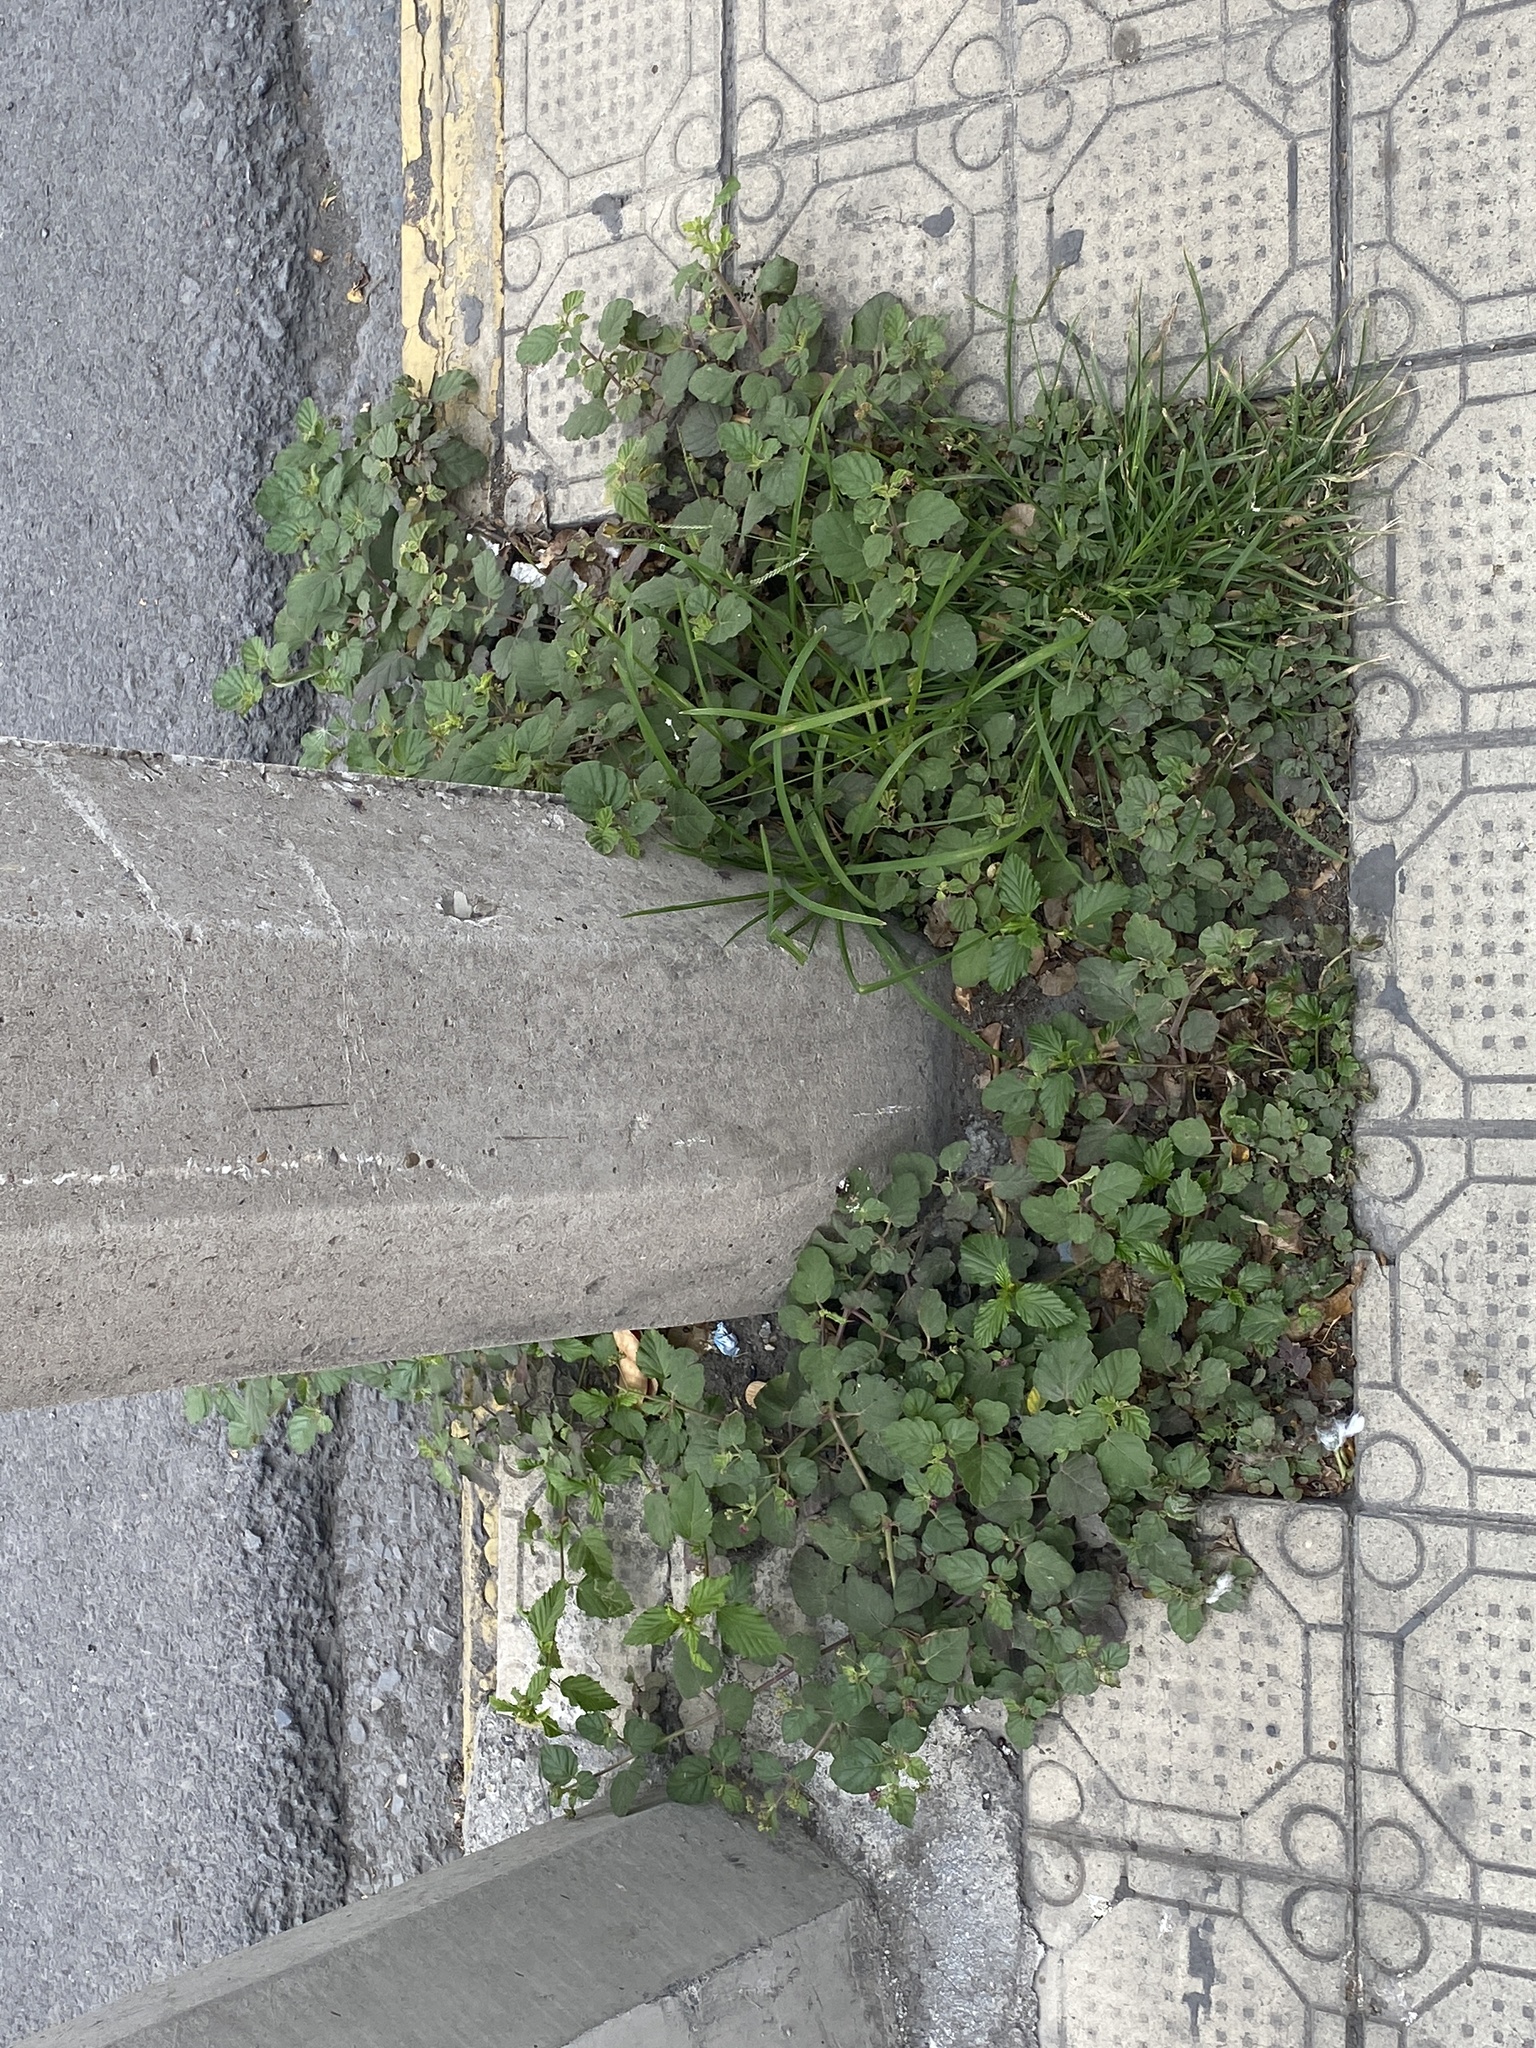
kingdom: Plantae
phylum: Tracheophyta
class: Magnoliopsida
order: Caryophyllales
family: Nyctaginaceae
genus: Boerhavia
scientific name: Boerhavia coccinea
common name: Scarlet spiderling
